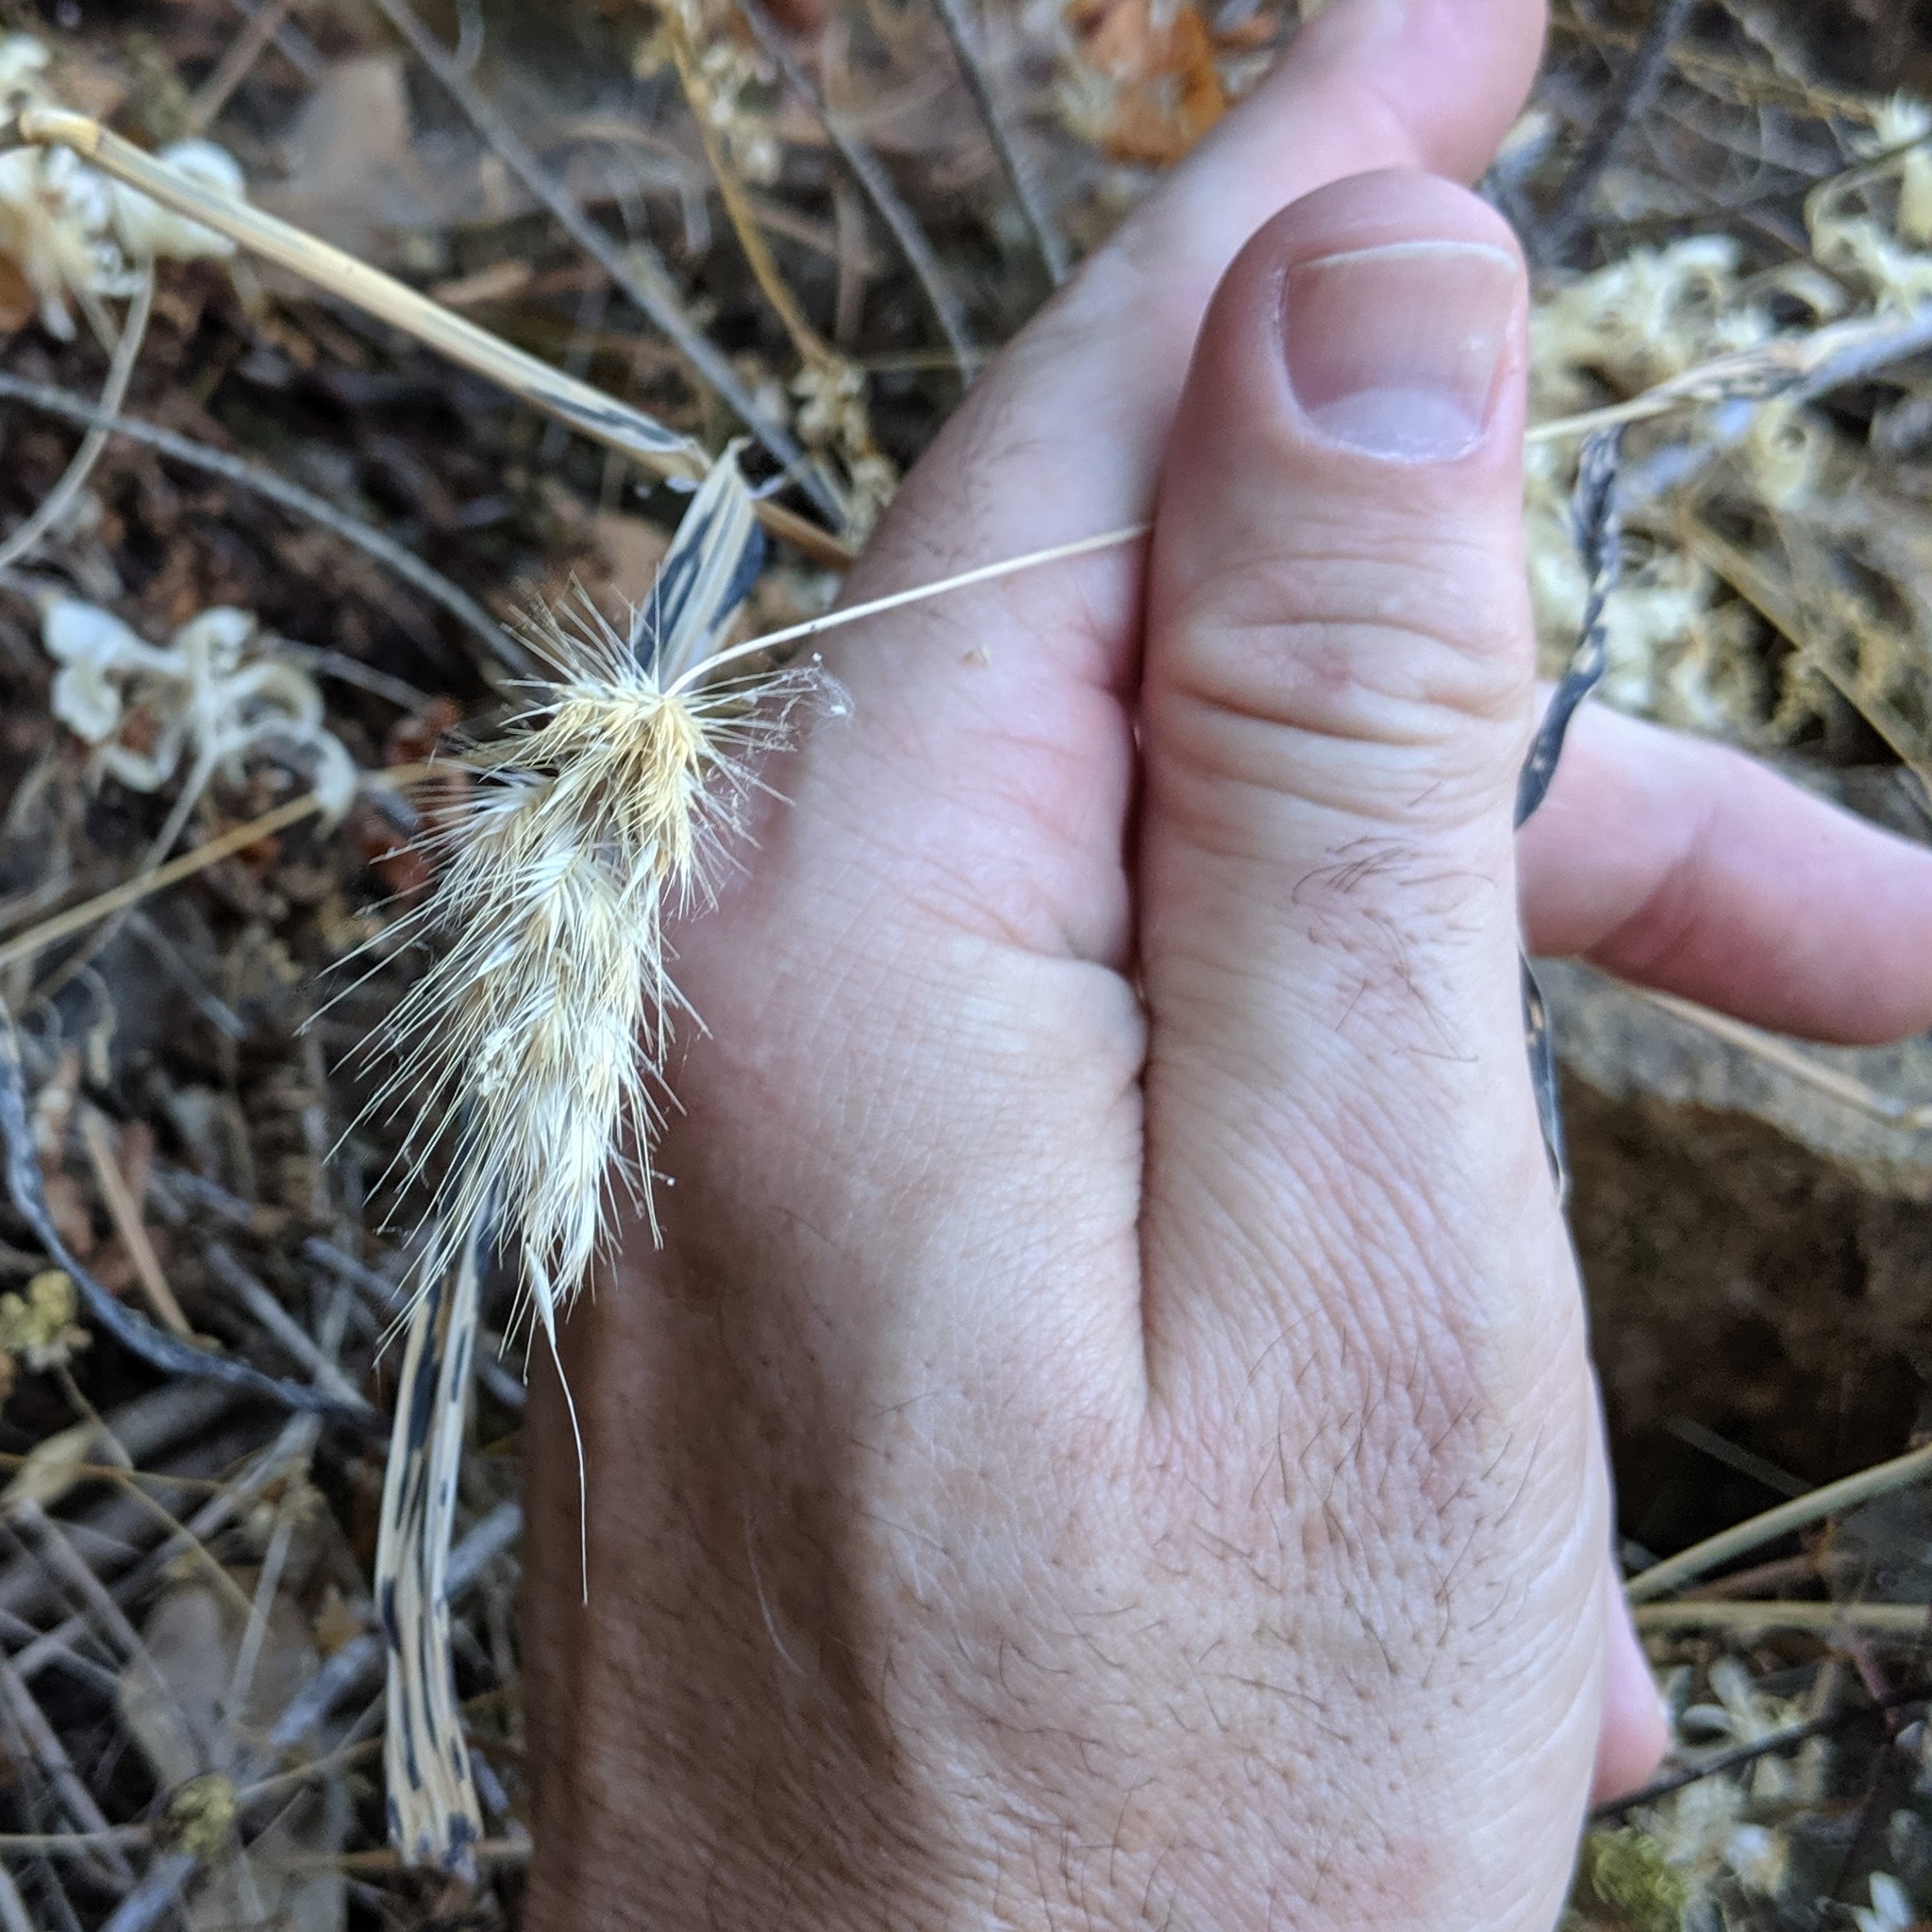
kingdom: Plantae
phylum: Tracheophyta
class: Liliopsida
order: Poales
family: Poaceae
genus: Cynosurus
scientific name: Cynosurus echinatus
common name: Rough dog's-tail
